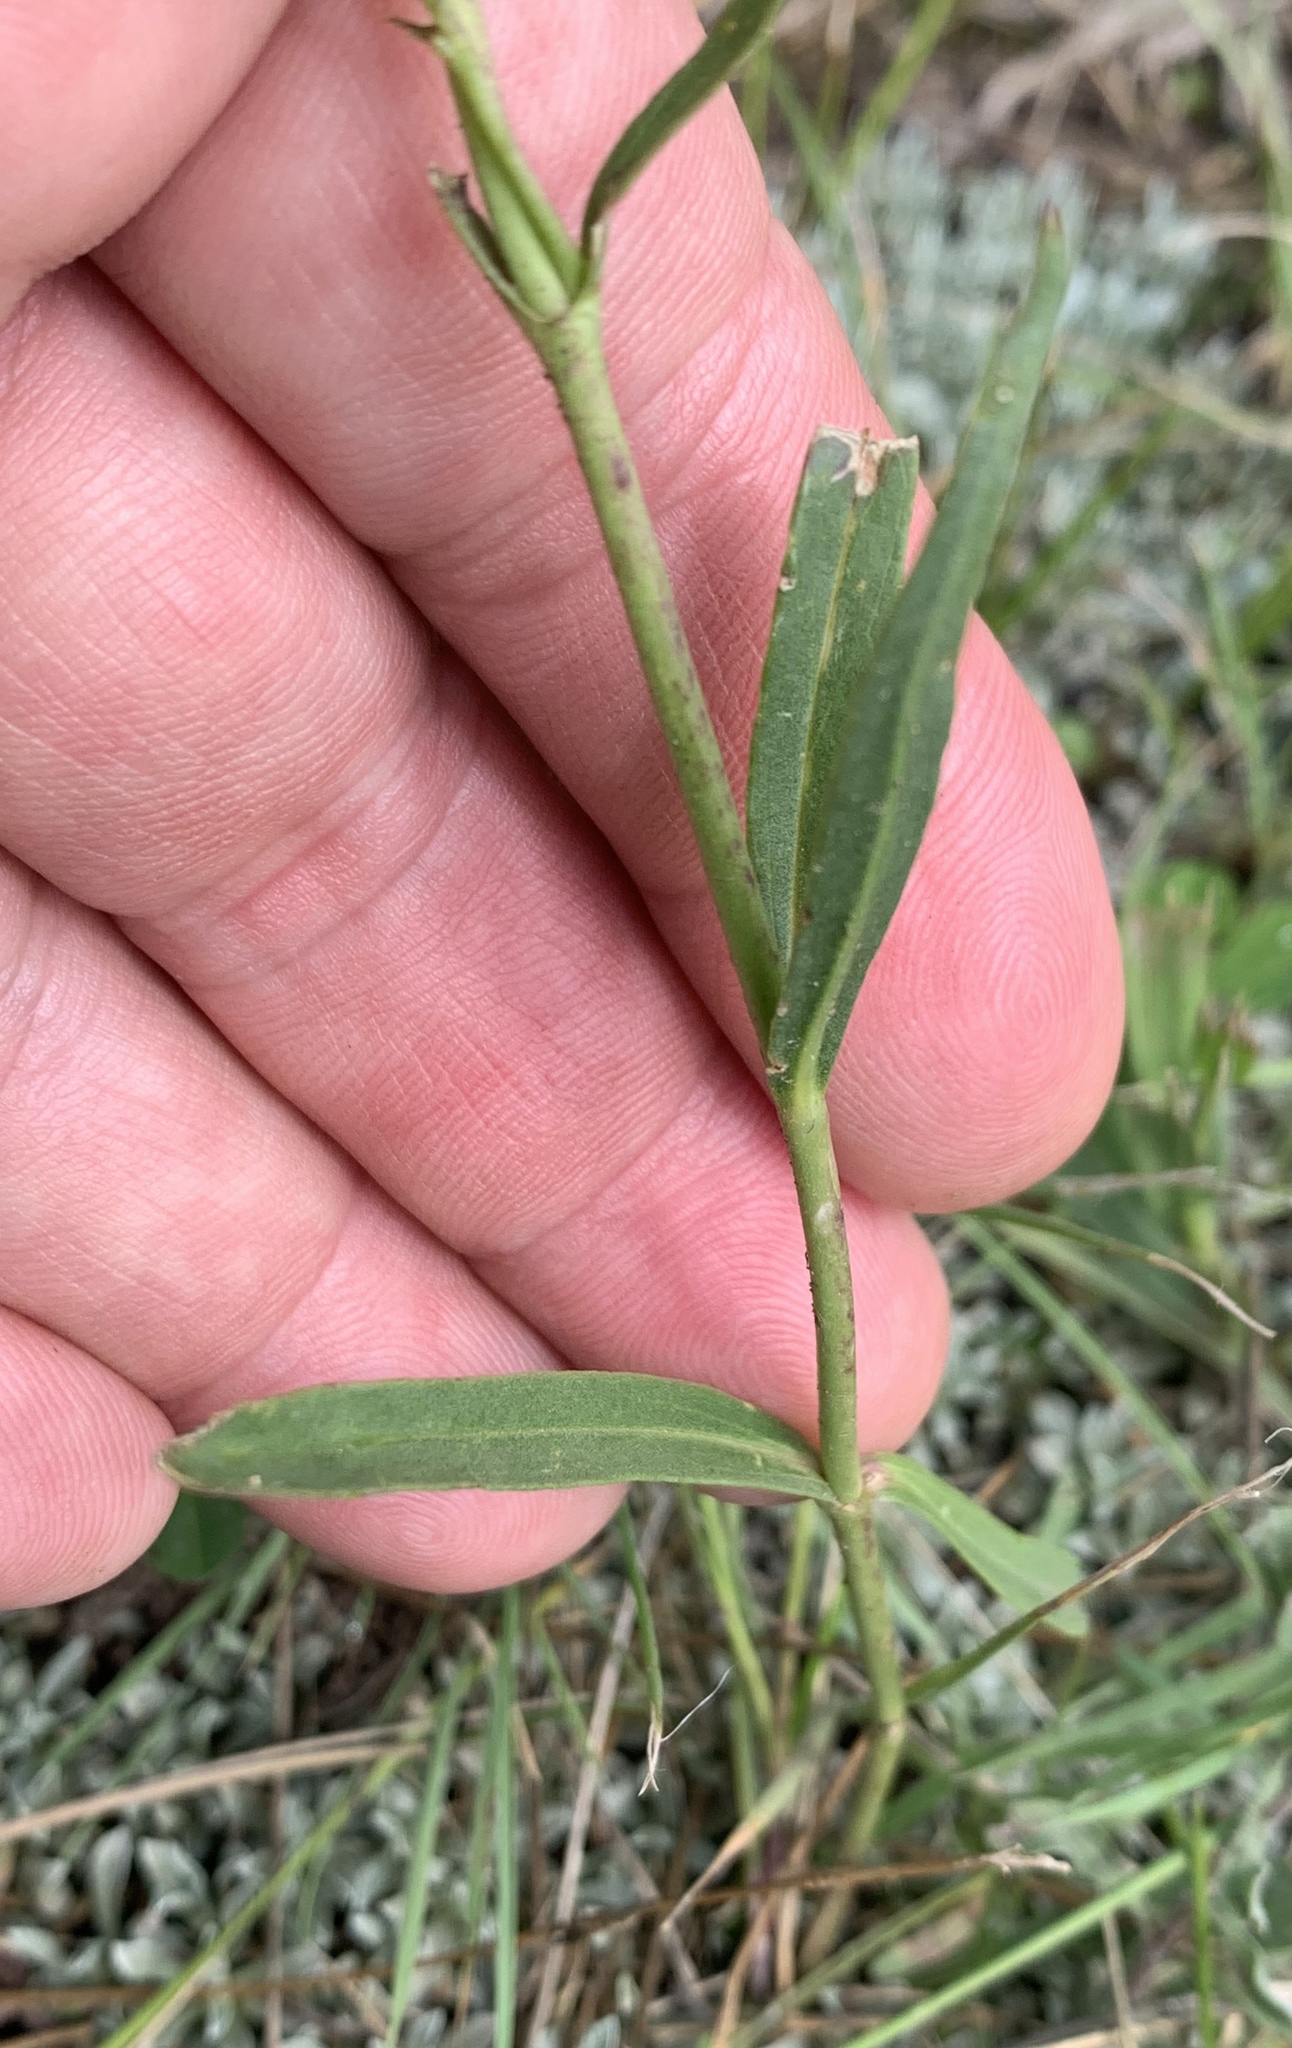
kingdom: Plantae
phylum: Tracheophyta
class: Magnoliopsida
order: Lamiales
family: Plantaginaceae
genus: Penstemon
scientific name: Penstemon strictus
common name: Rocky mountain penstemon
